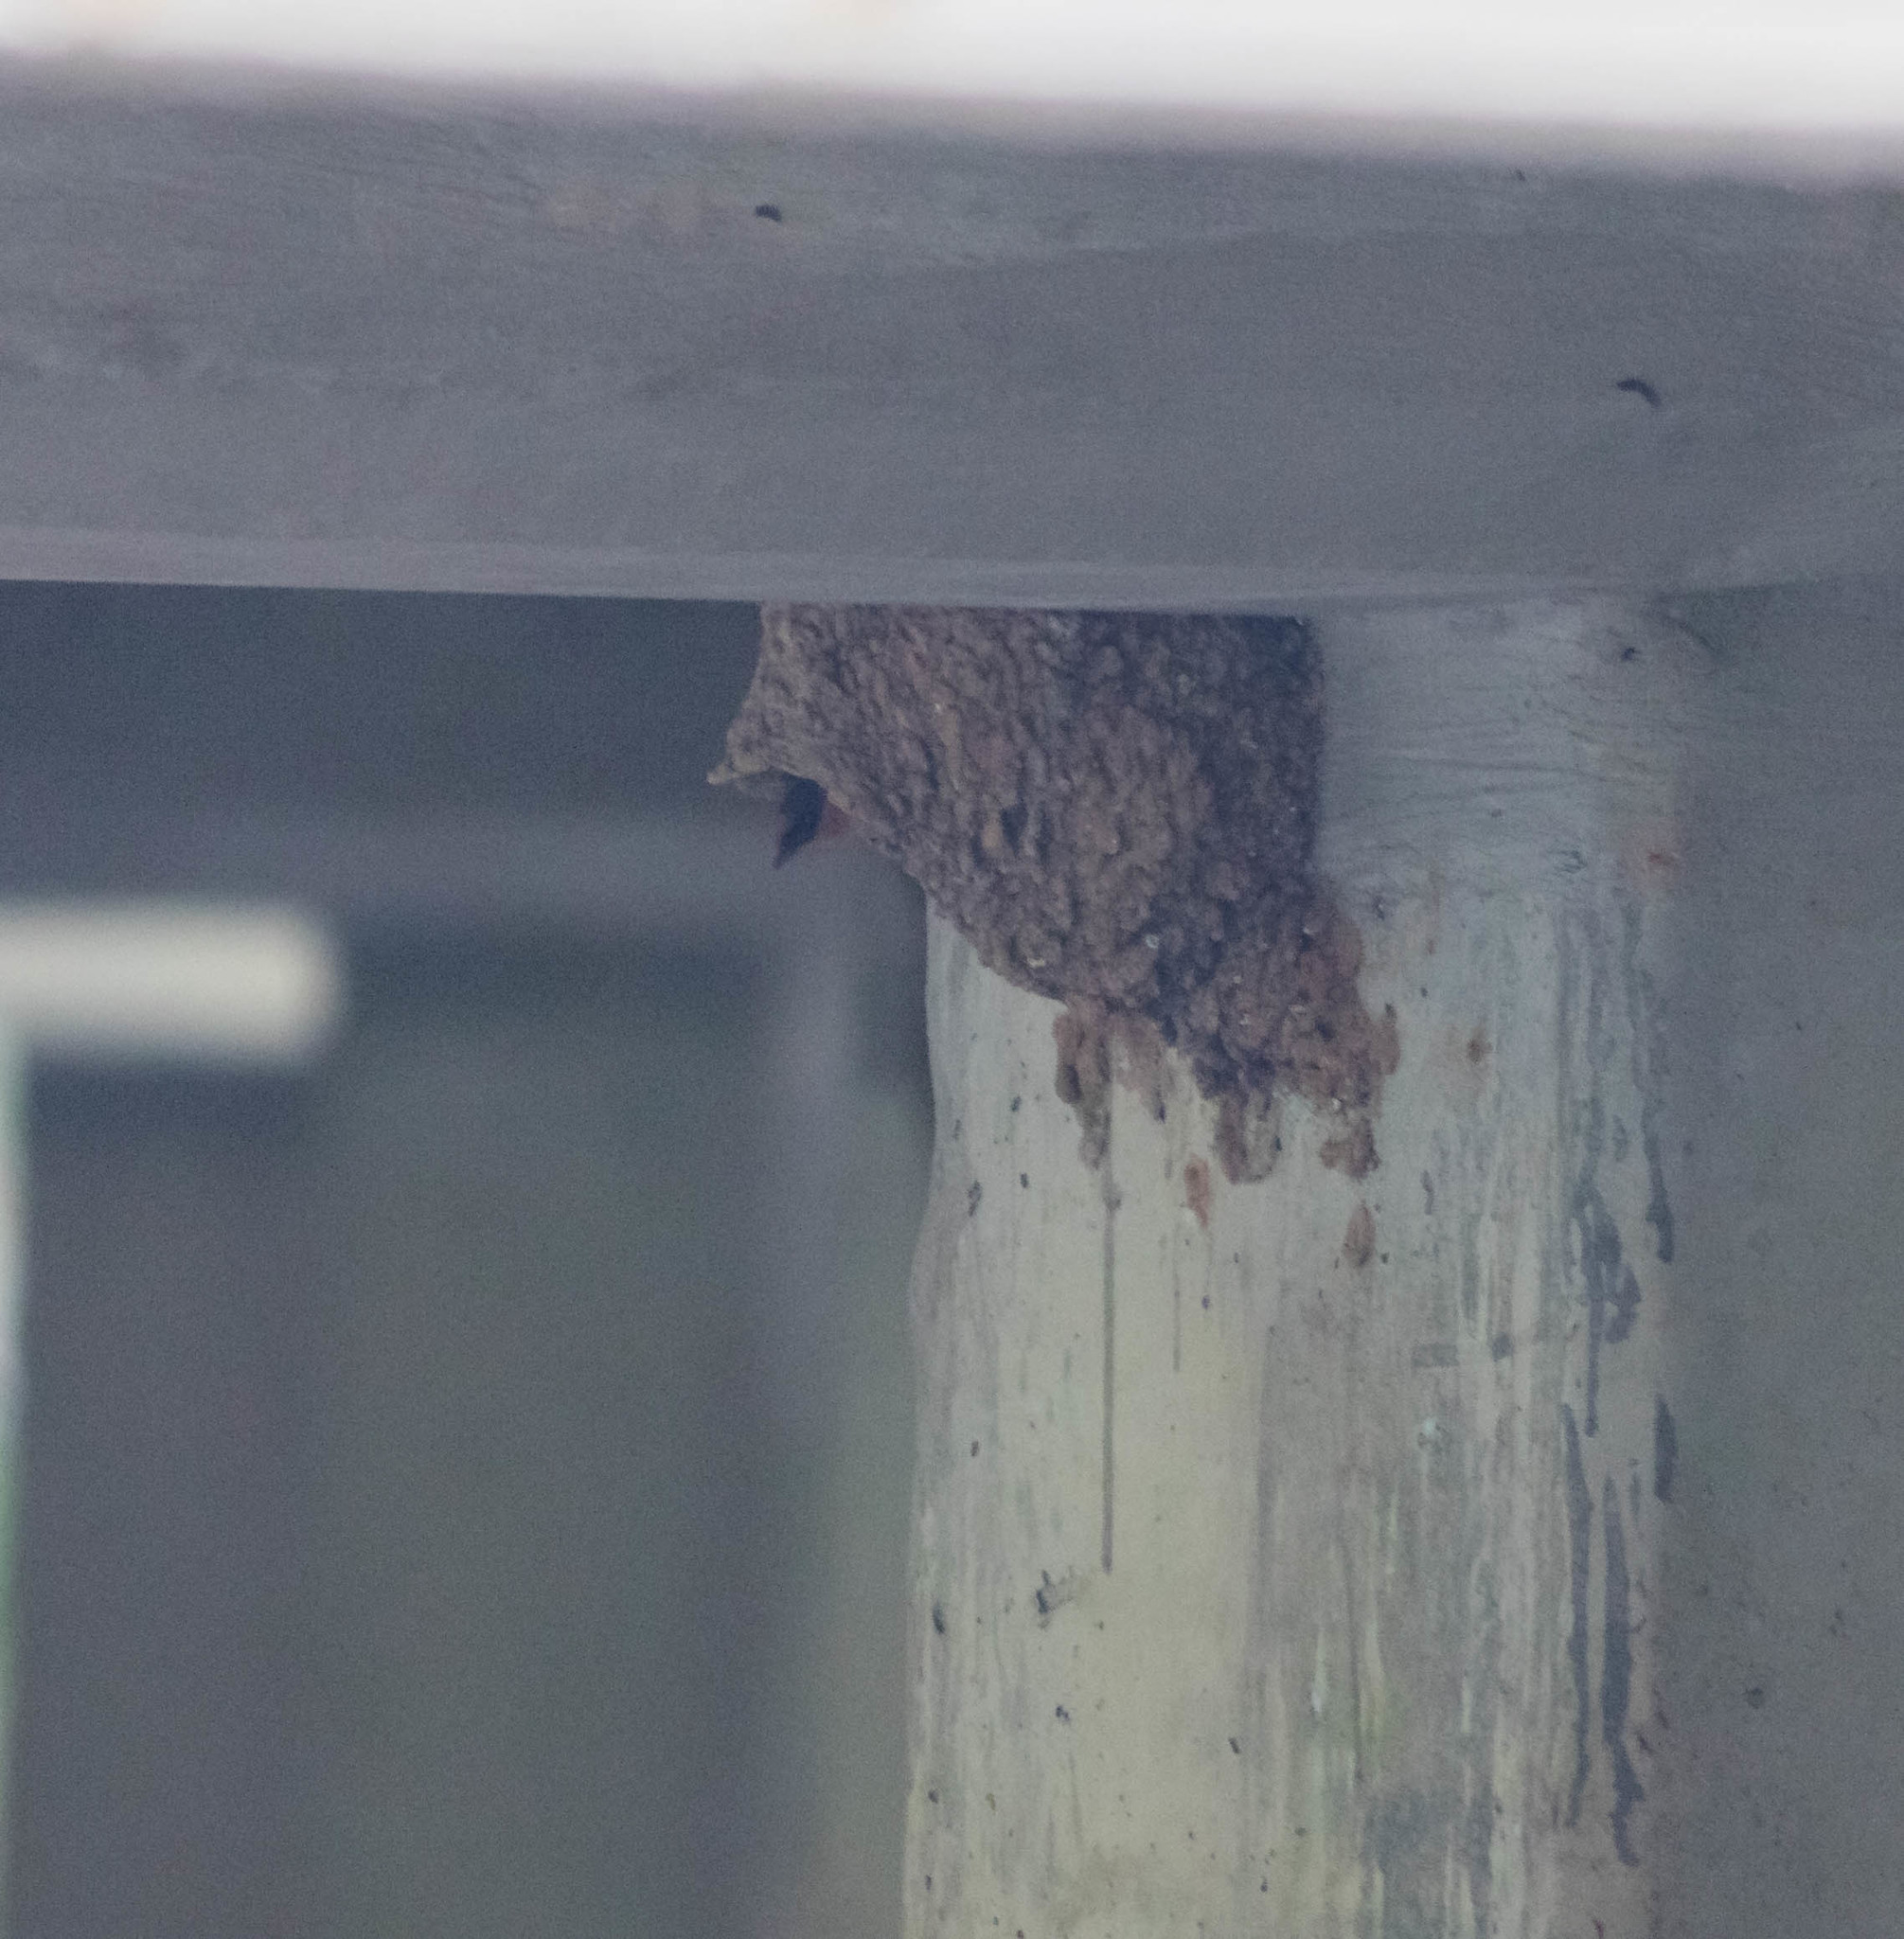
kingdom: Animalia
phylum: Chordata
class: Aves
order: Passeriformes
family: Hirundinidae
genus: Petrochelidon
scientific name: Petrochelidon fulva
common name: Cave swallow
